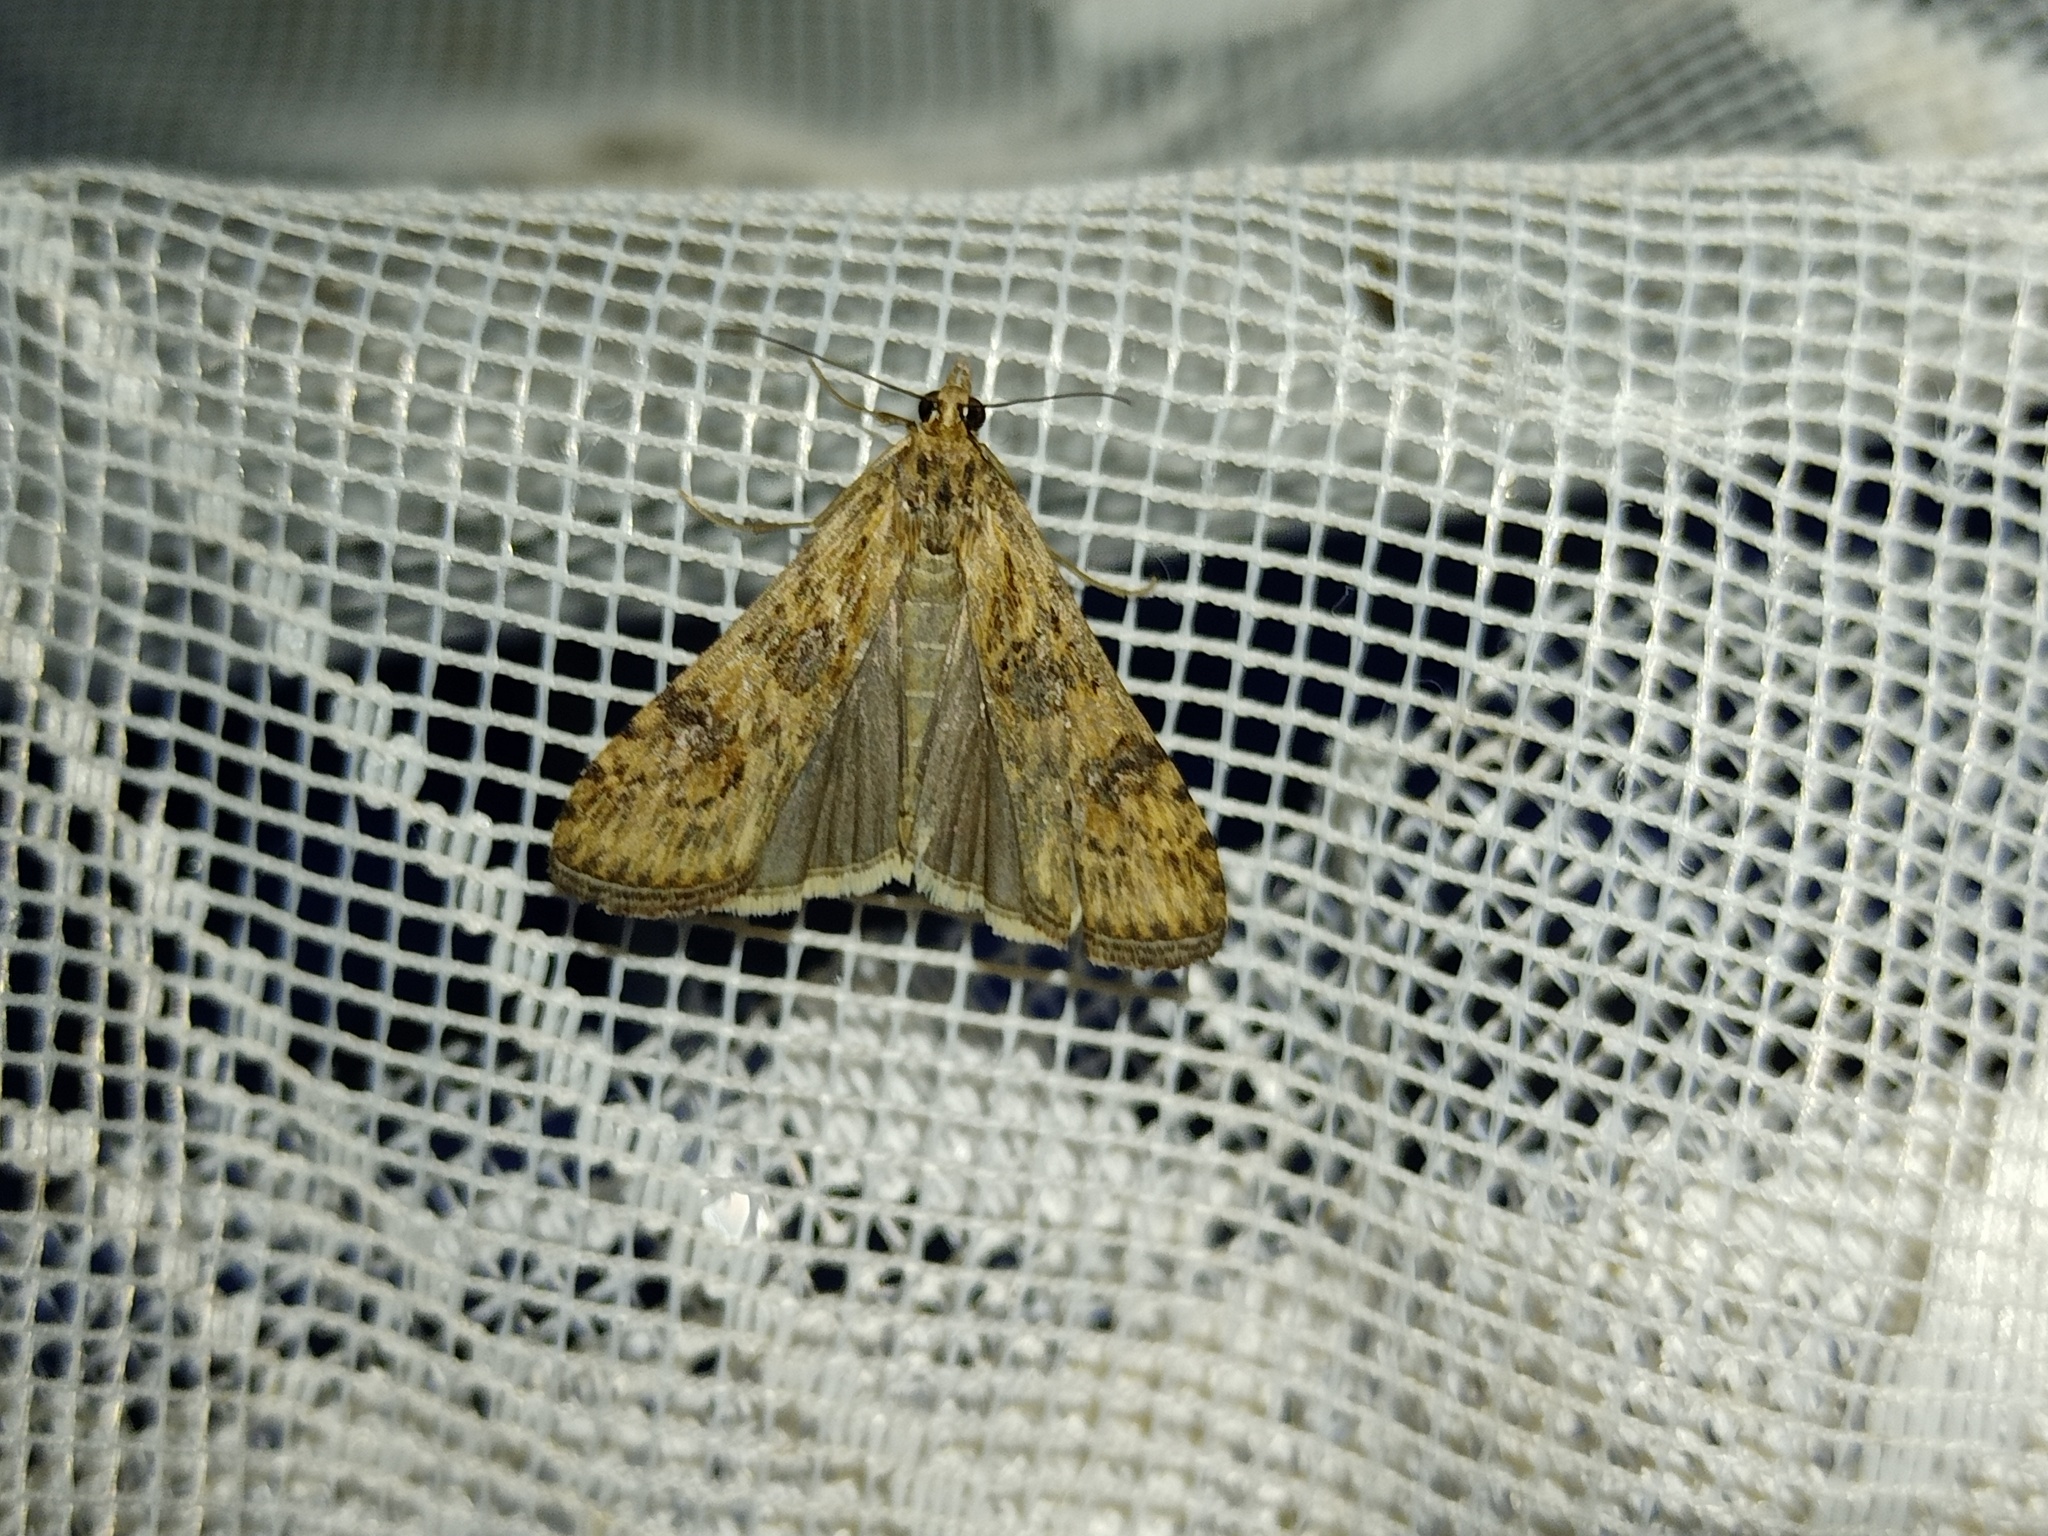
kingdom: Animalia
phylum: Arthropoda
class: Insecta
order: Lepidoptera
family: Crambidae
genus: Nomophila
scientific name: Nomophila noctuella
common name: Rush veneer
